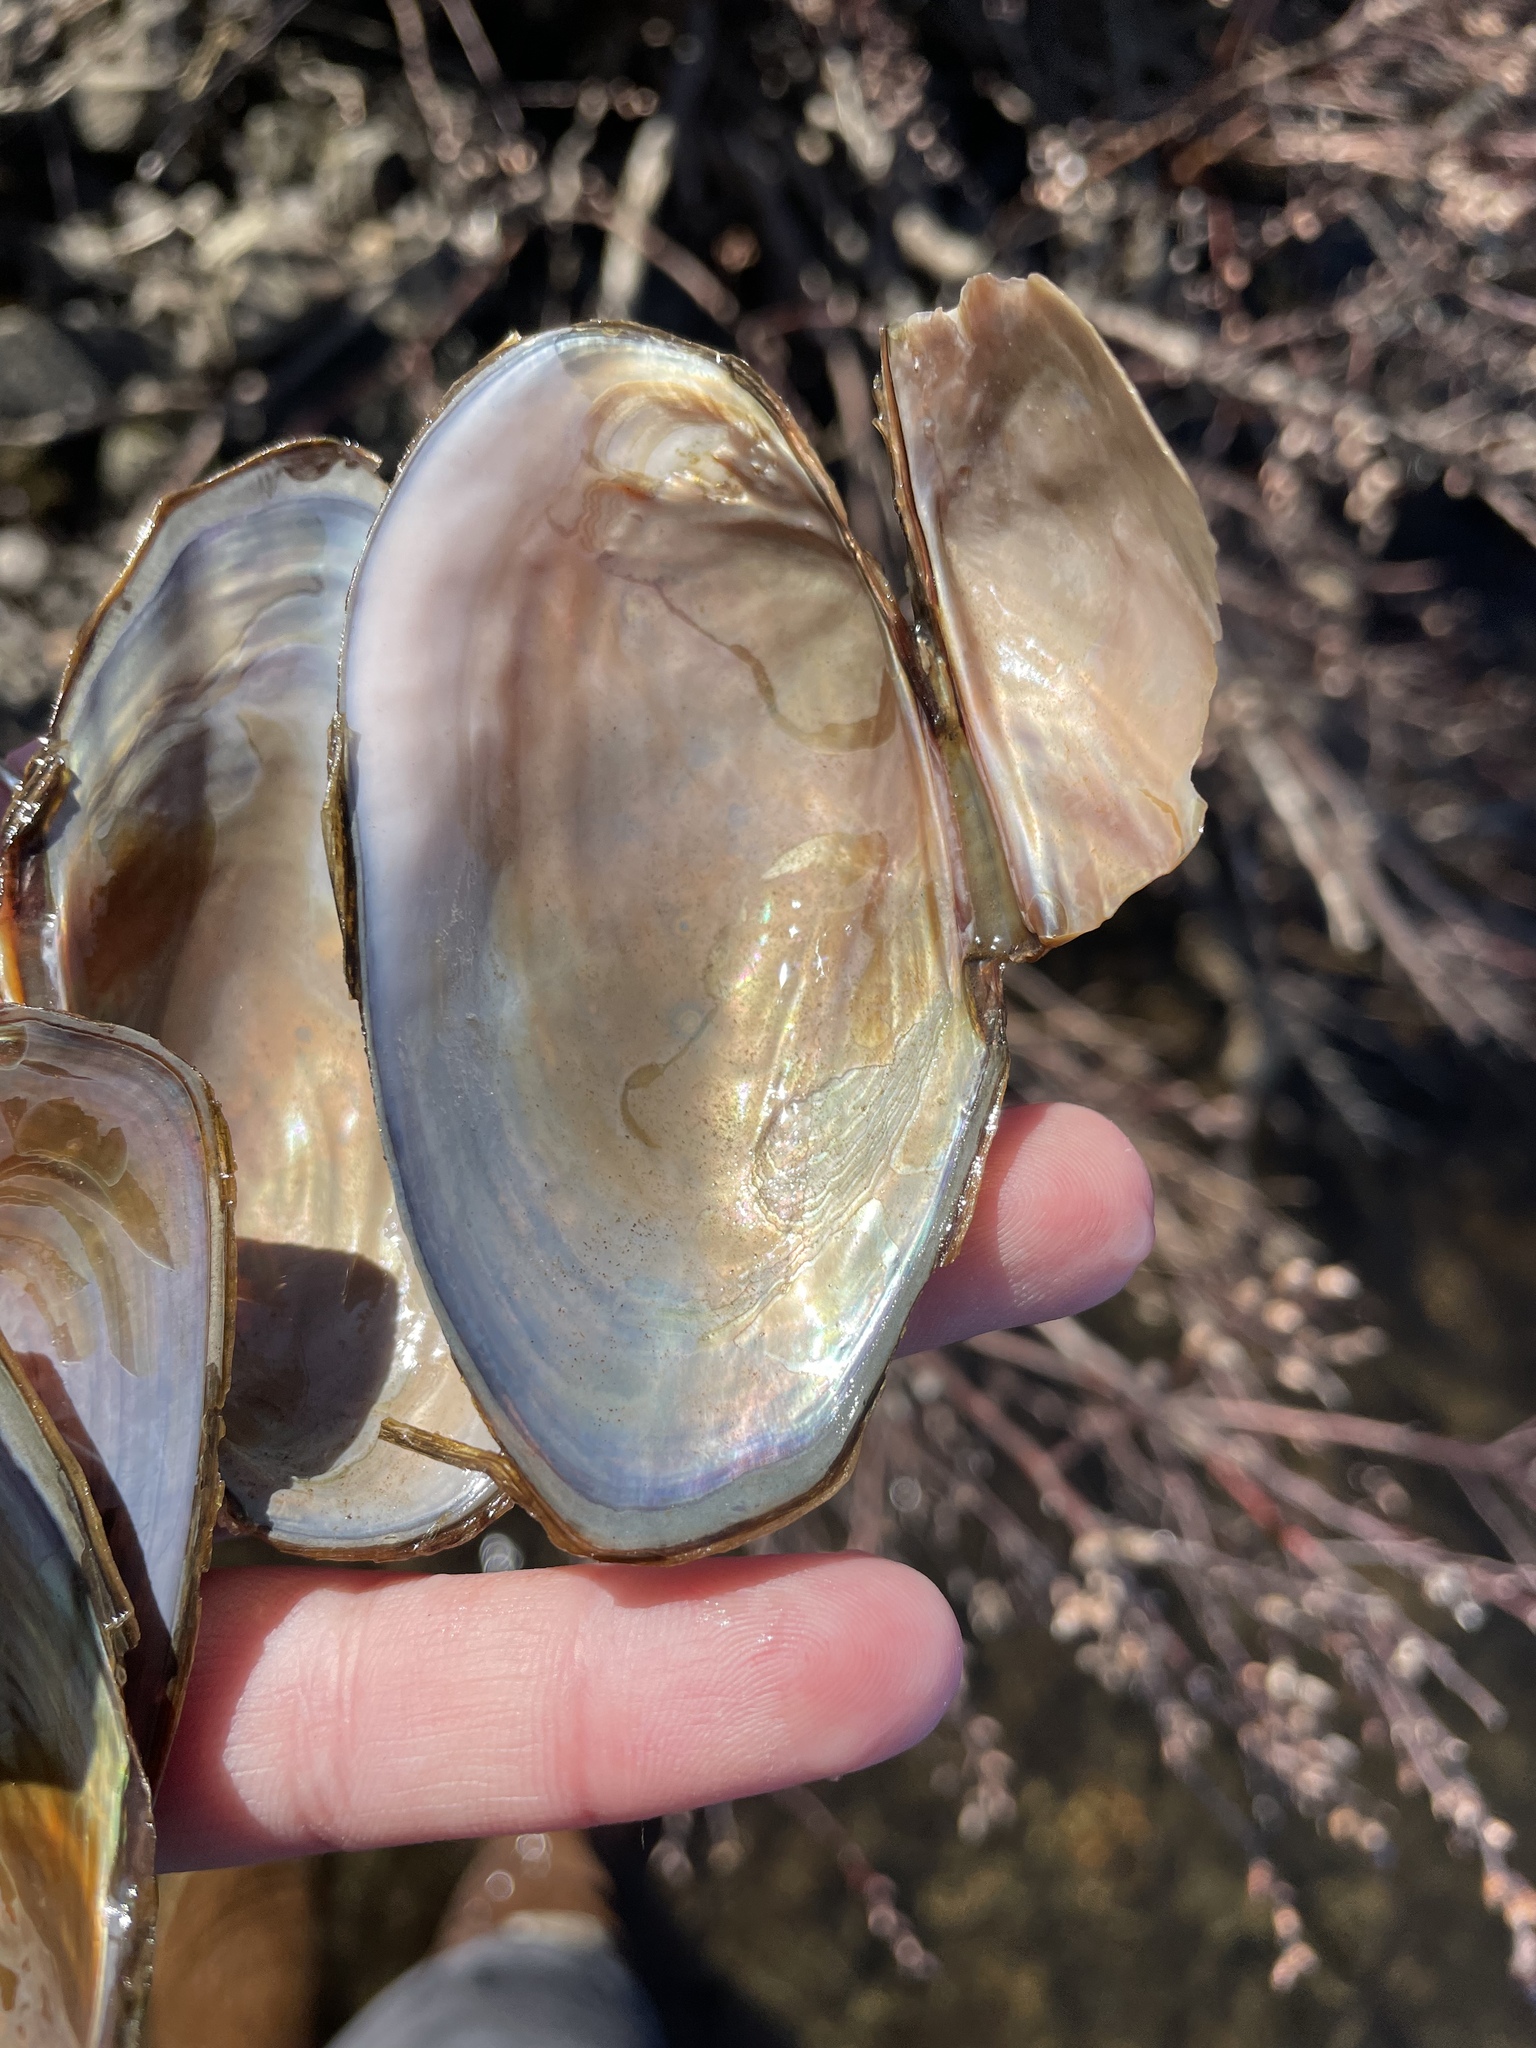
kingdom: Animalia
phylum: Mollusca
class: Bivalvia
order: Unionida
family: Unionidae
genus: Utterbackiana
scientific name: Utterbackiana implicata
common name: Alewife floater
